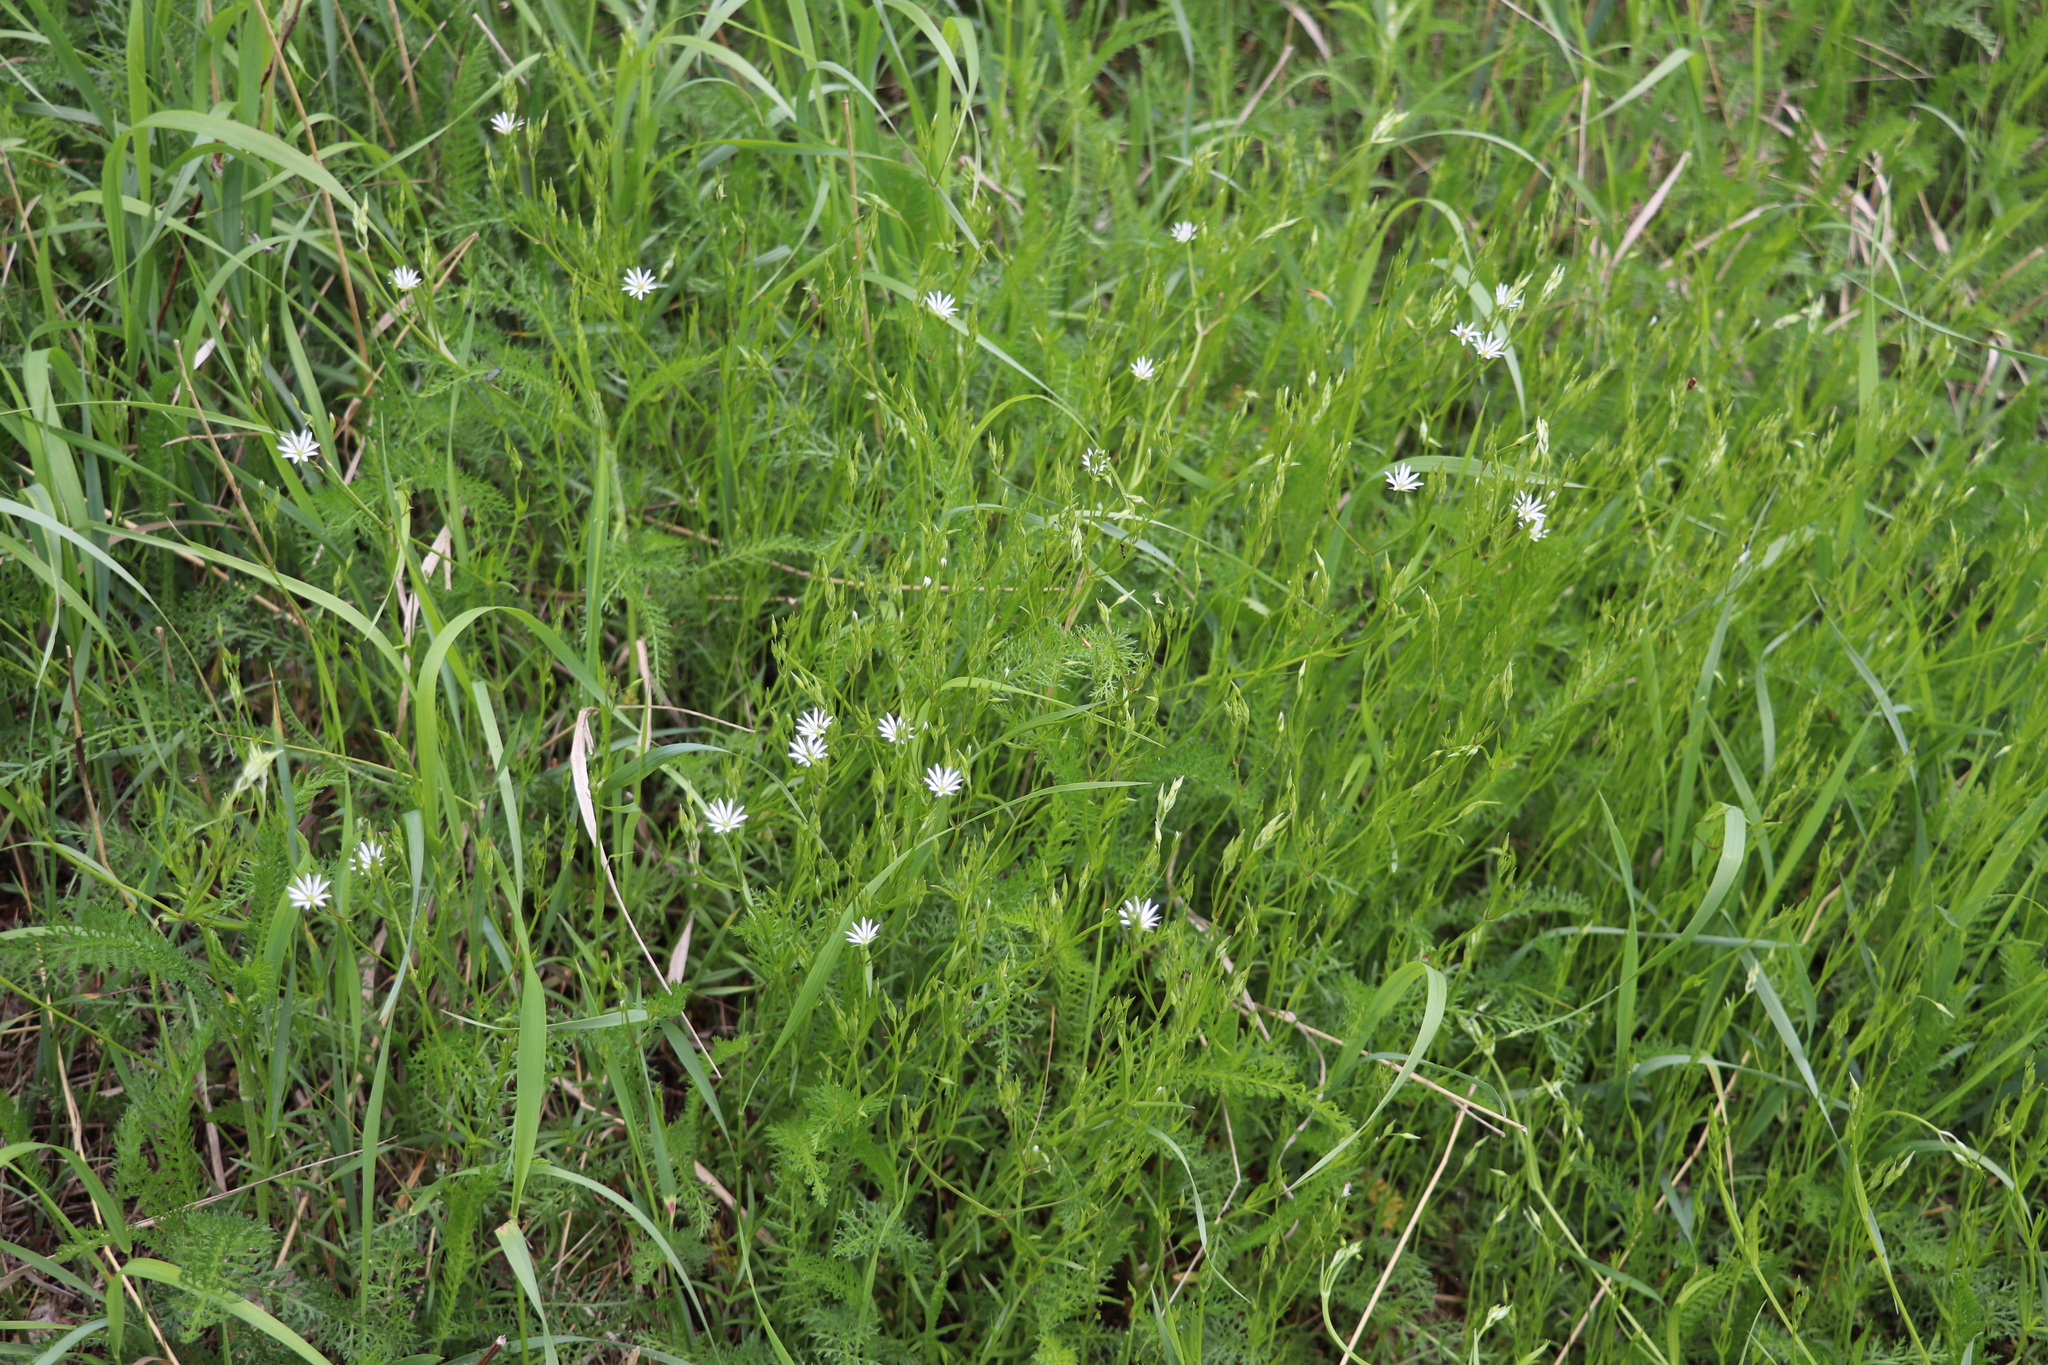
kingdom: Plantae
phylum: Tracheophyta
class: Magnoliopsida
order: Caryophyllales
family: Caryophyllaceae
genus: Stellaria
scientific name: Stellaria graminea
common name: Grass-like starwort
